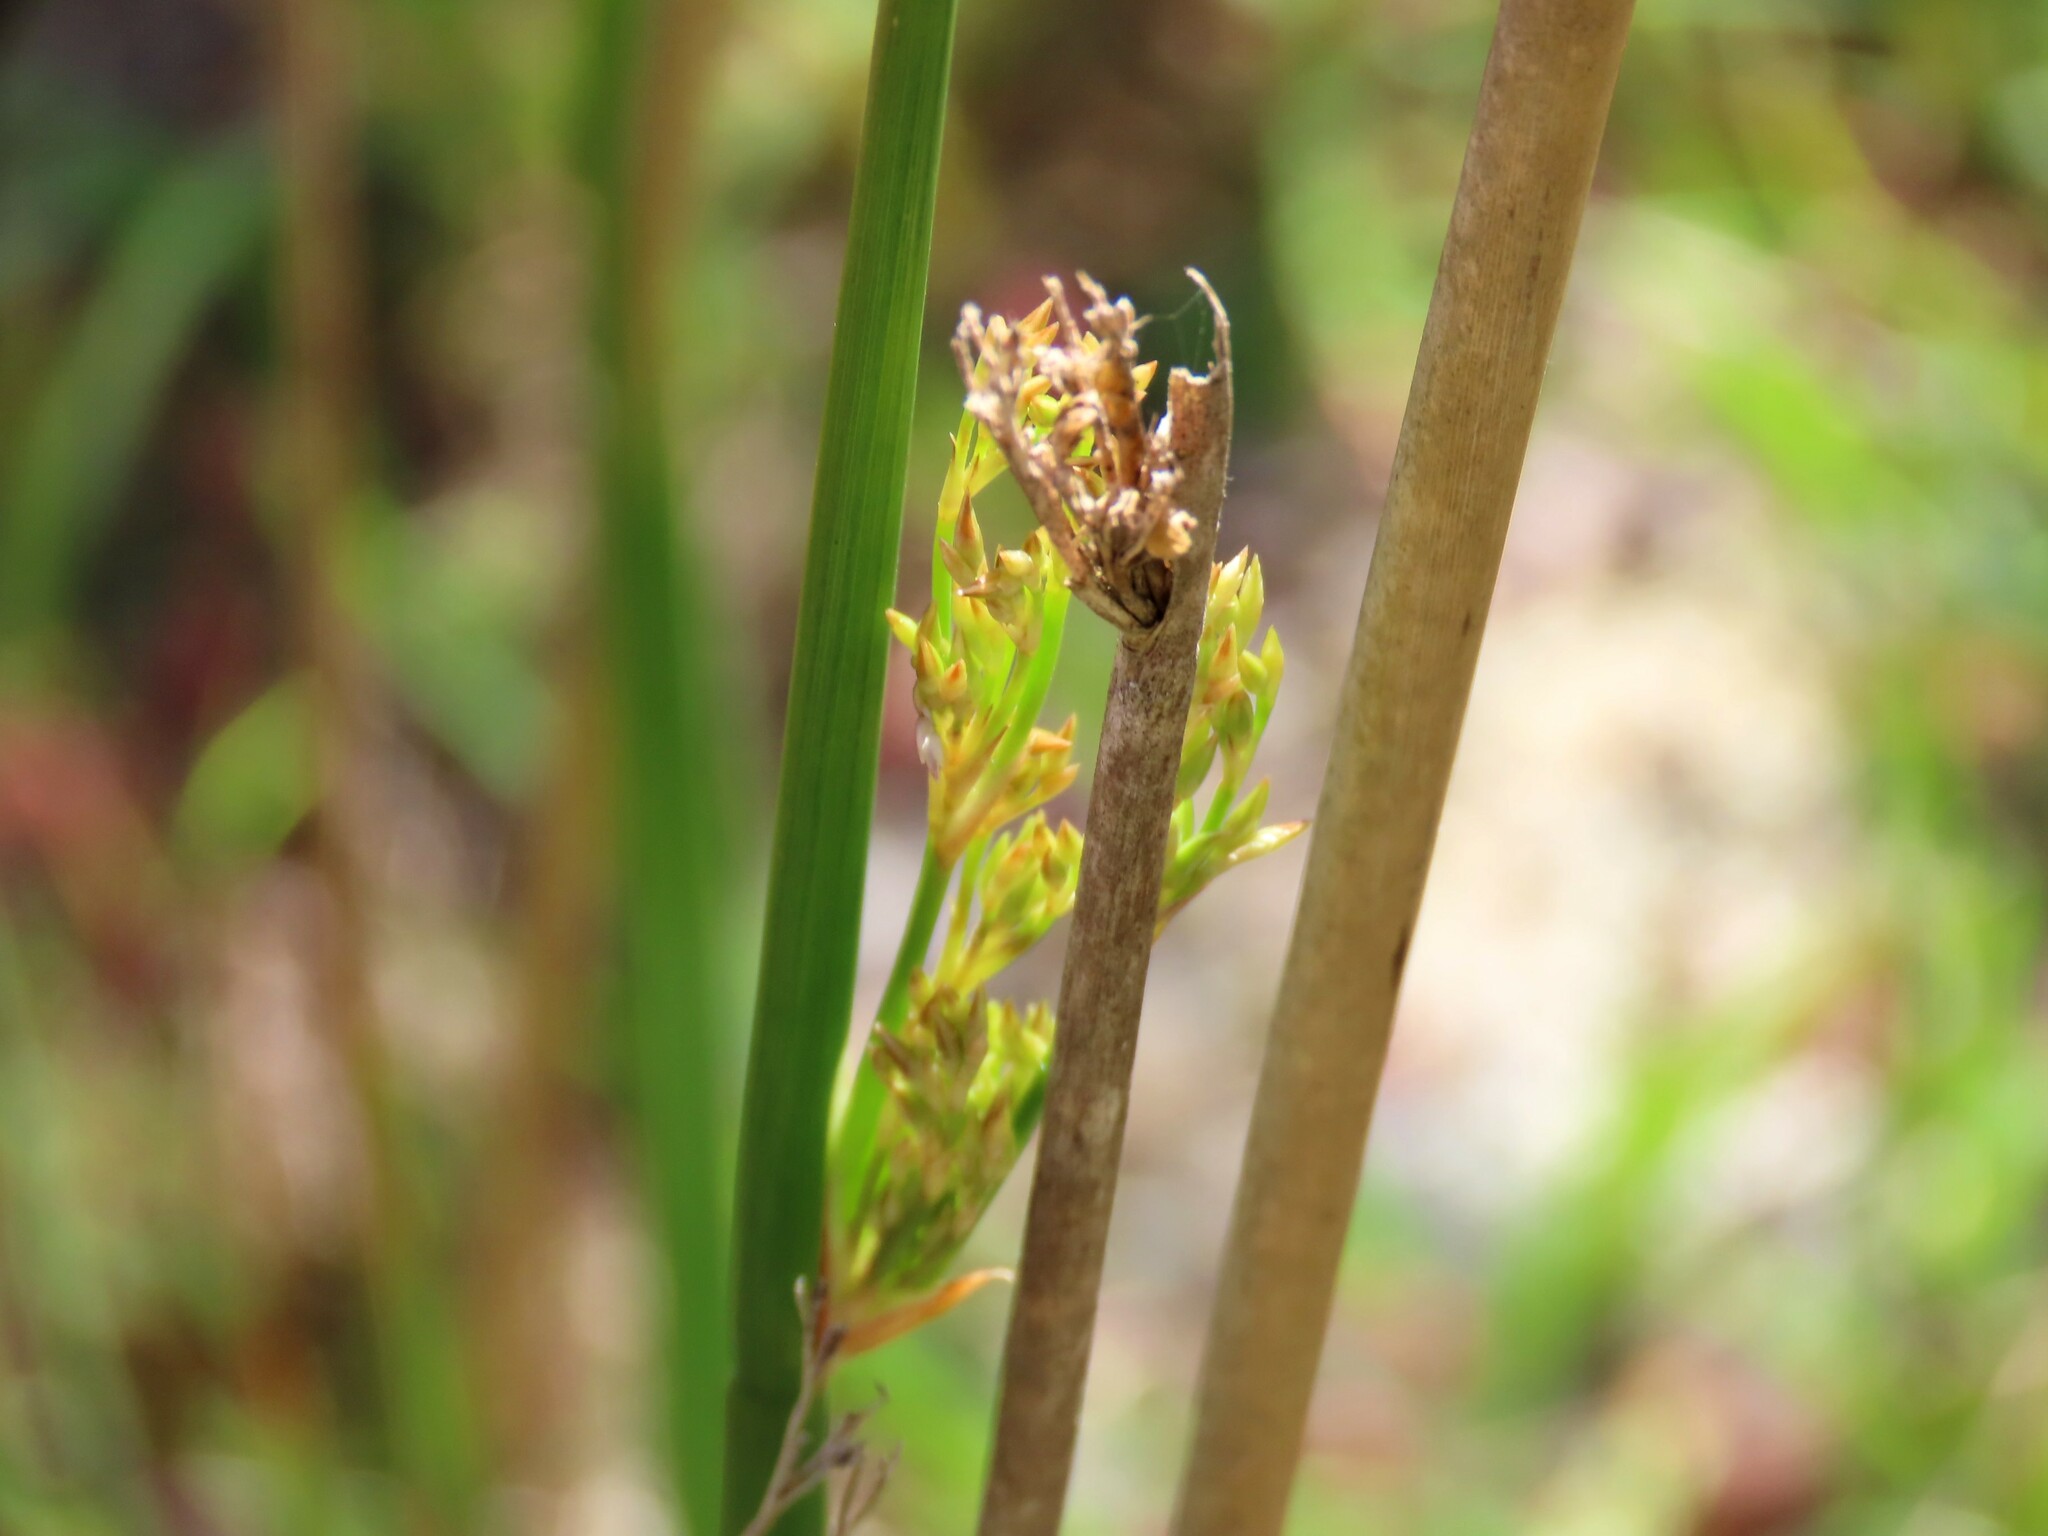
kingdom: Plantae
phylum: Tracheophyta
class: Liliopsida
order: Poales
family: Juncaceae
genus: Juncus
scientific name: Juncus pallidus
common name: Great soft-rush
